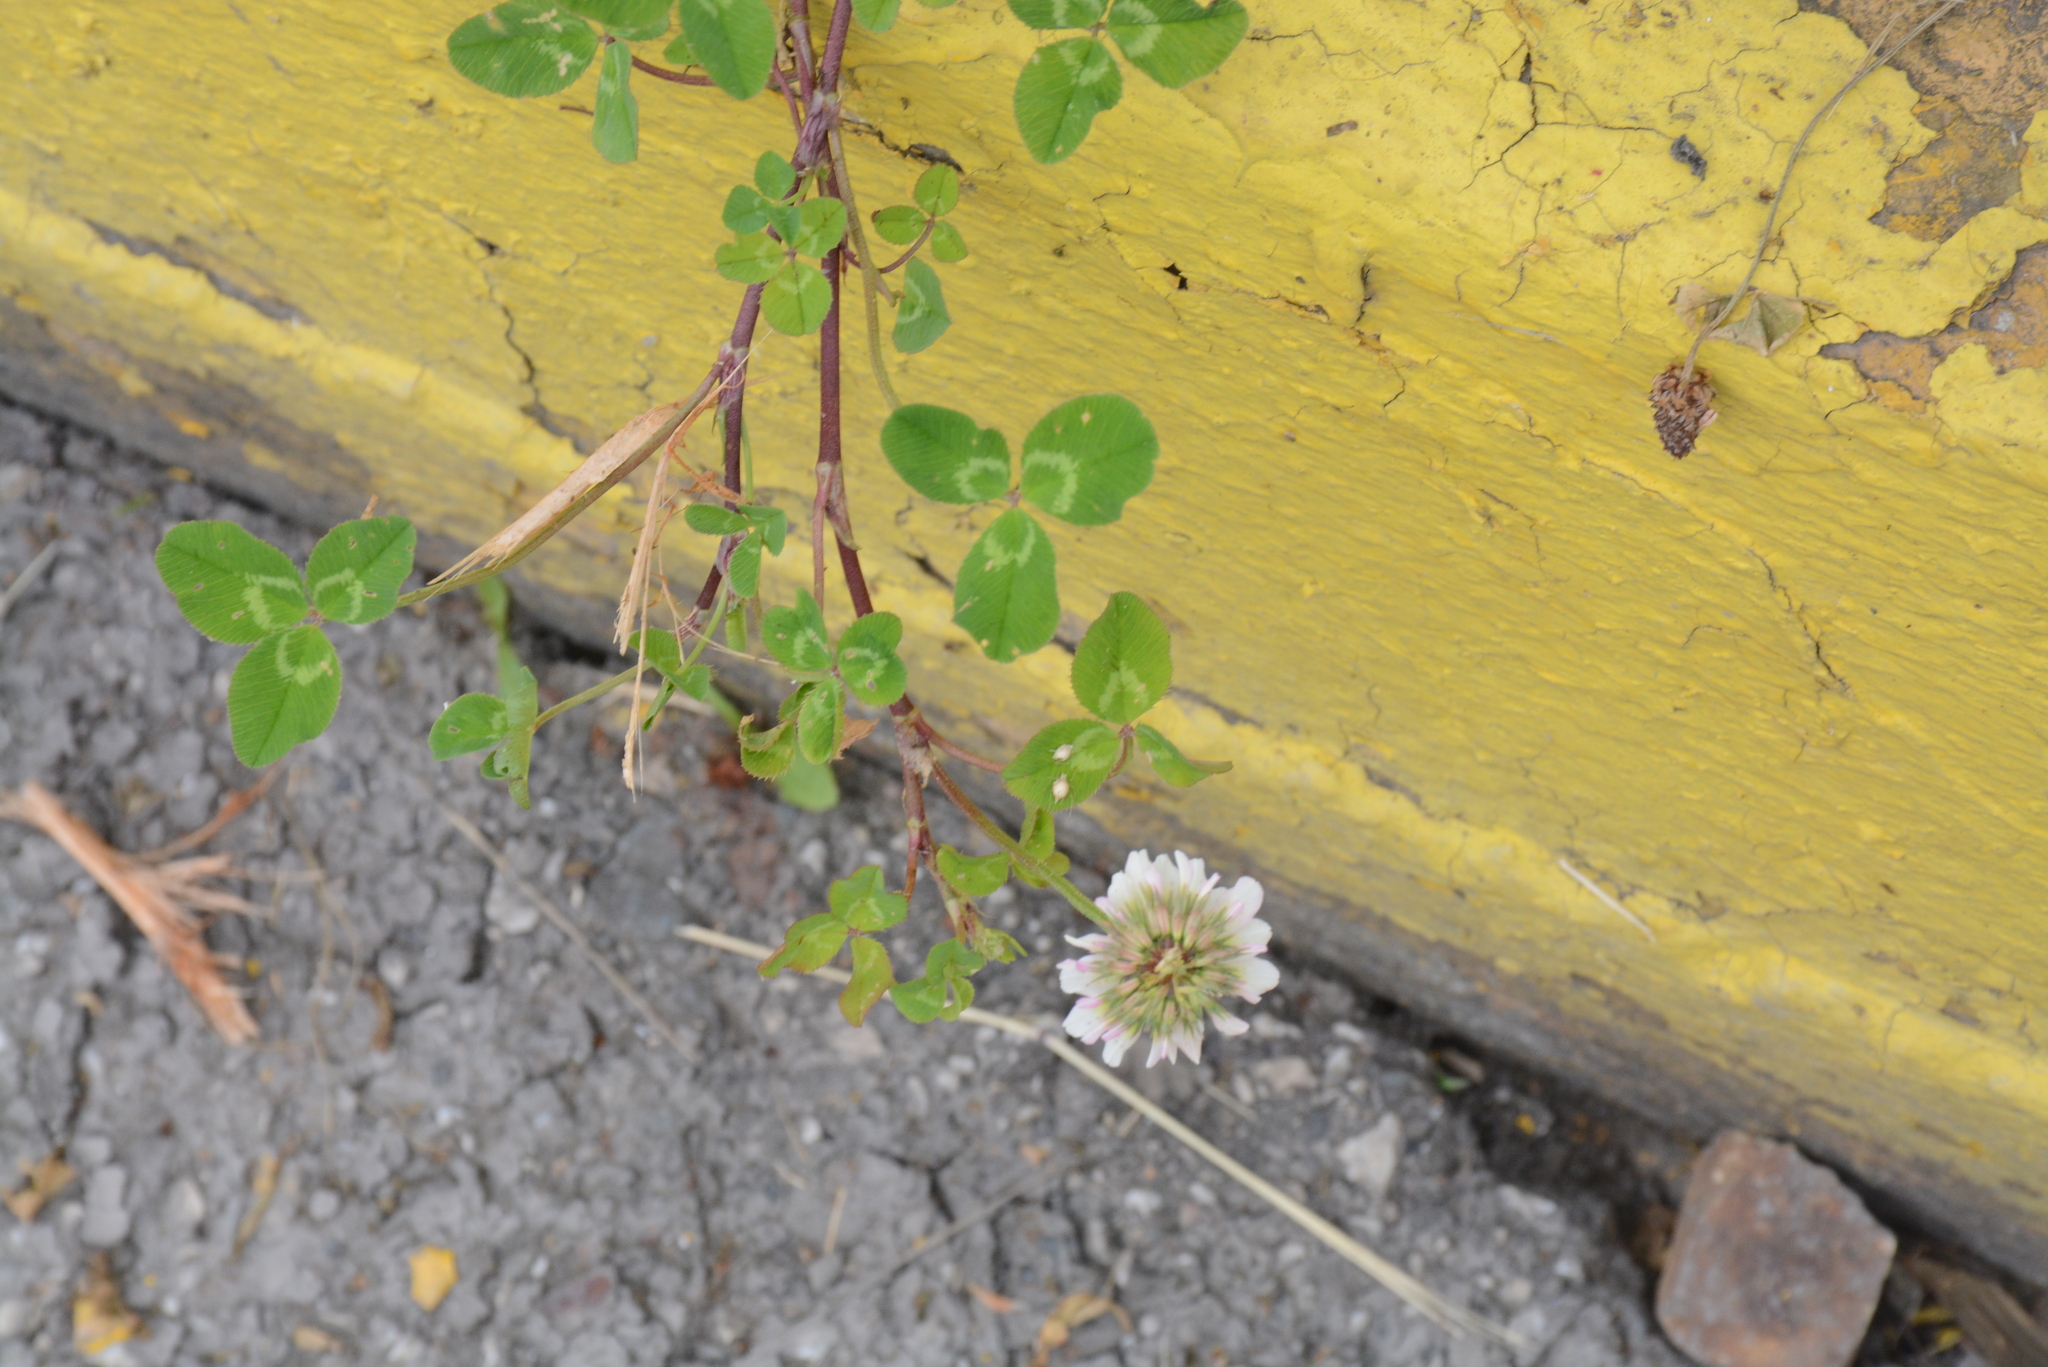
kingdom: Plantae
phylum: Tracheophyta
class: Magnoliopsida
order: Fabales
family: Fabaceae
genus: Trifolium
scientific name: Trifolium repens
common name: White clover
